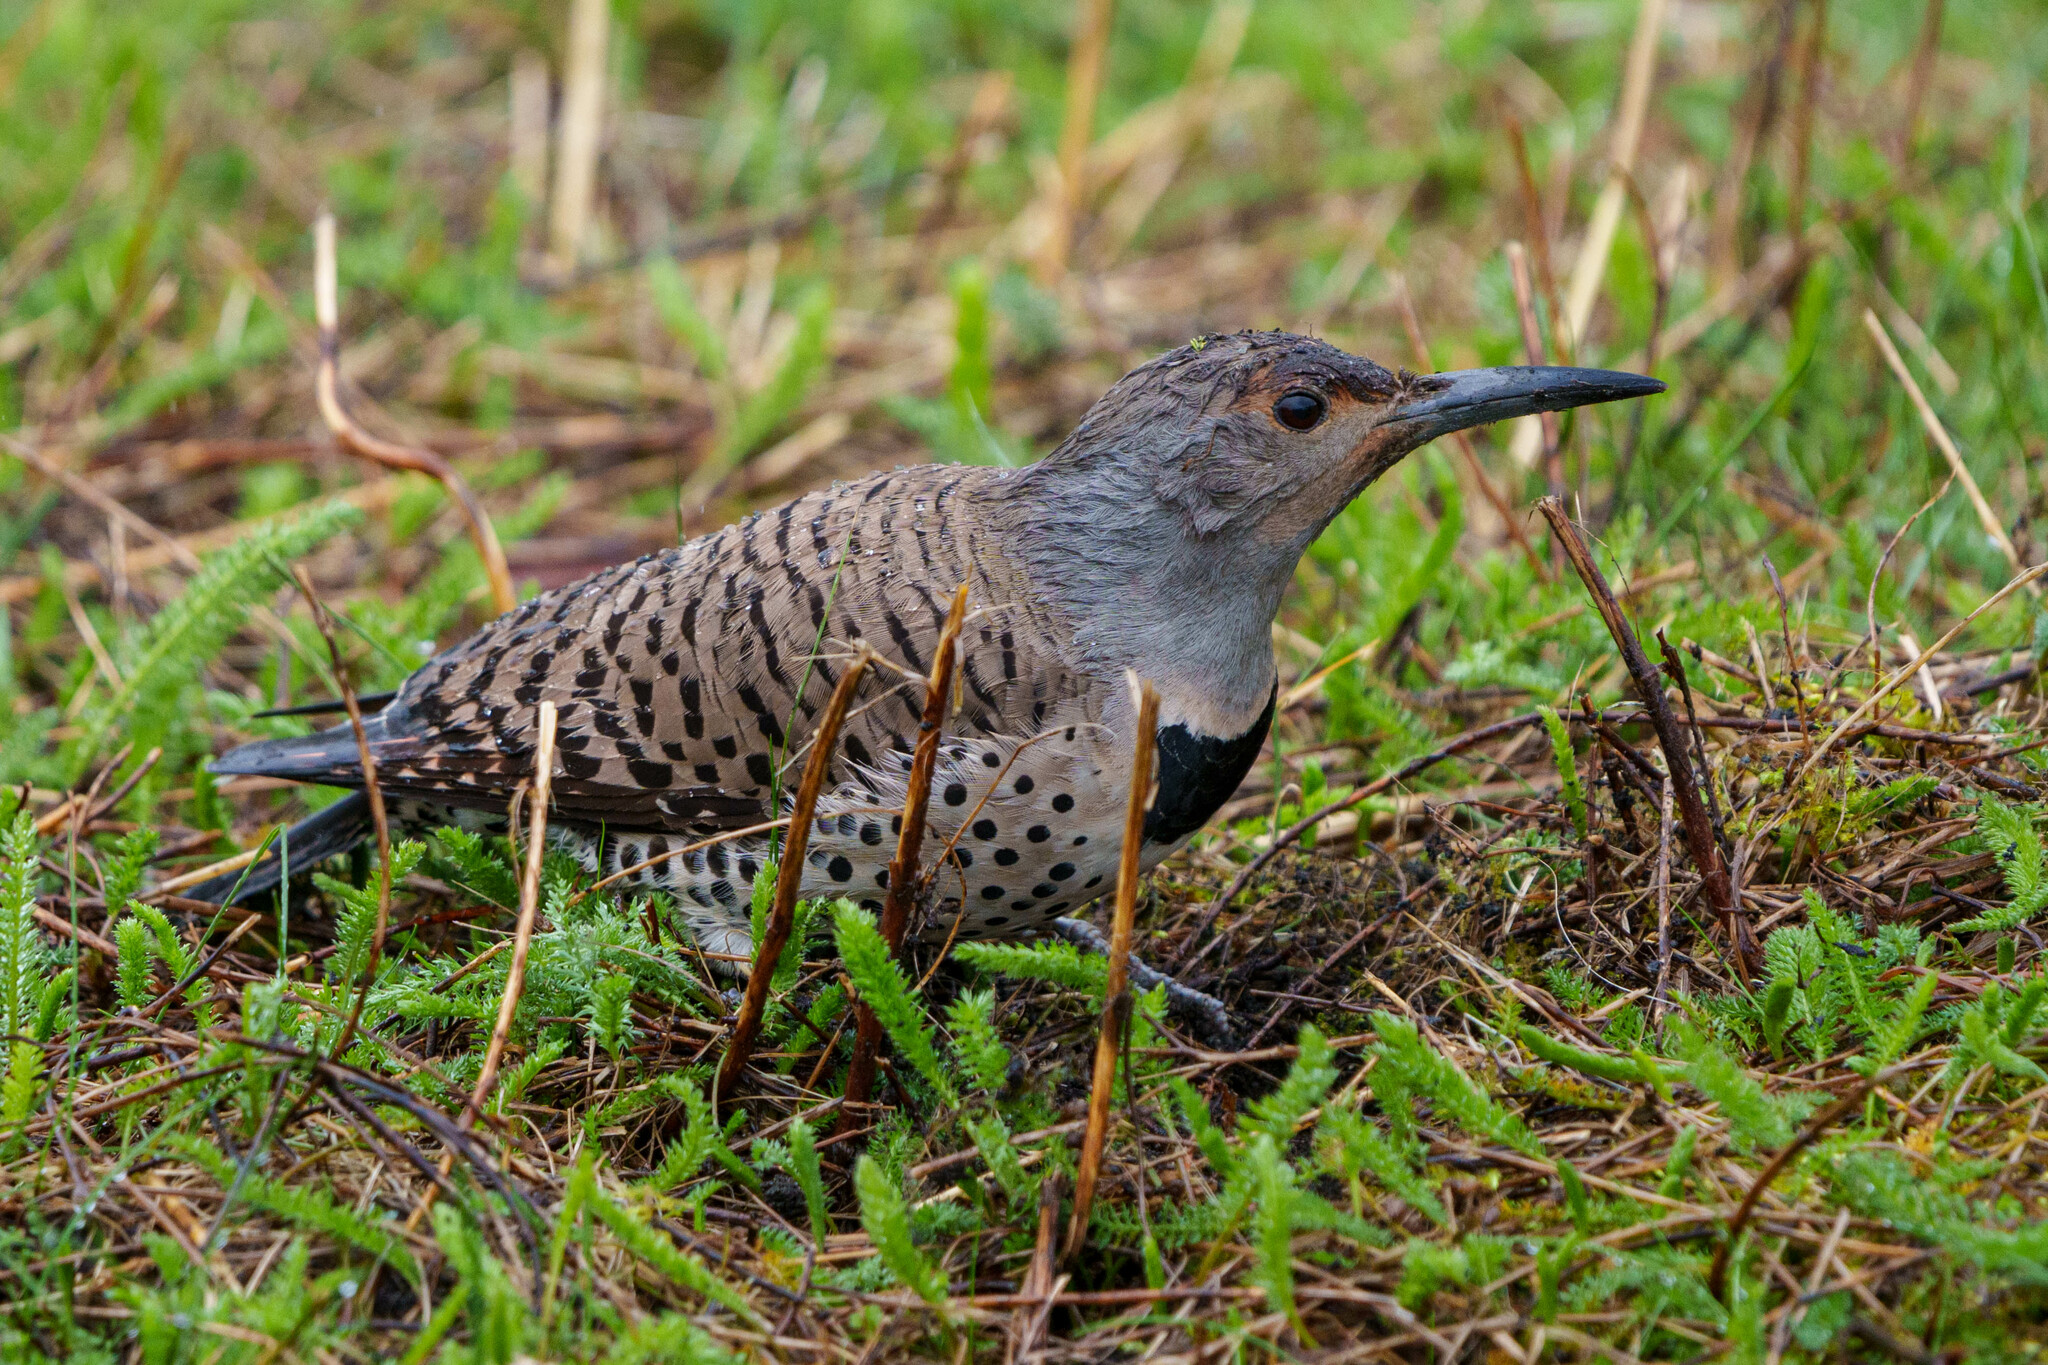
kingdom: Animalia
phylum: Chordata
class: Aves
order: Piciformes
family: Picidae
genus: Colaptes
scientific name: Colaptes auratus
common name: Northern flicker
